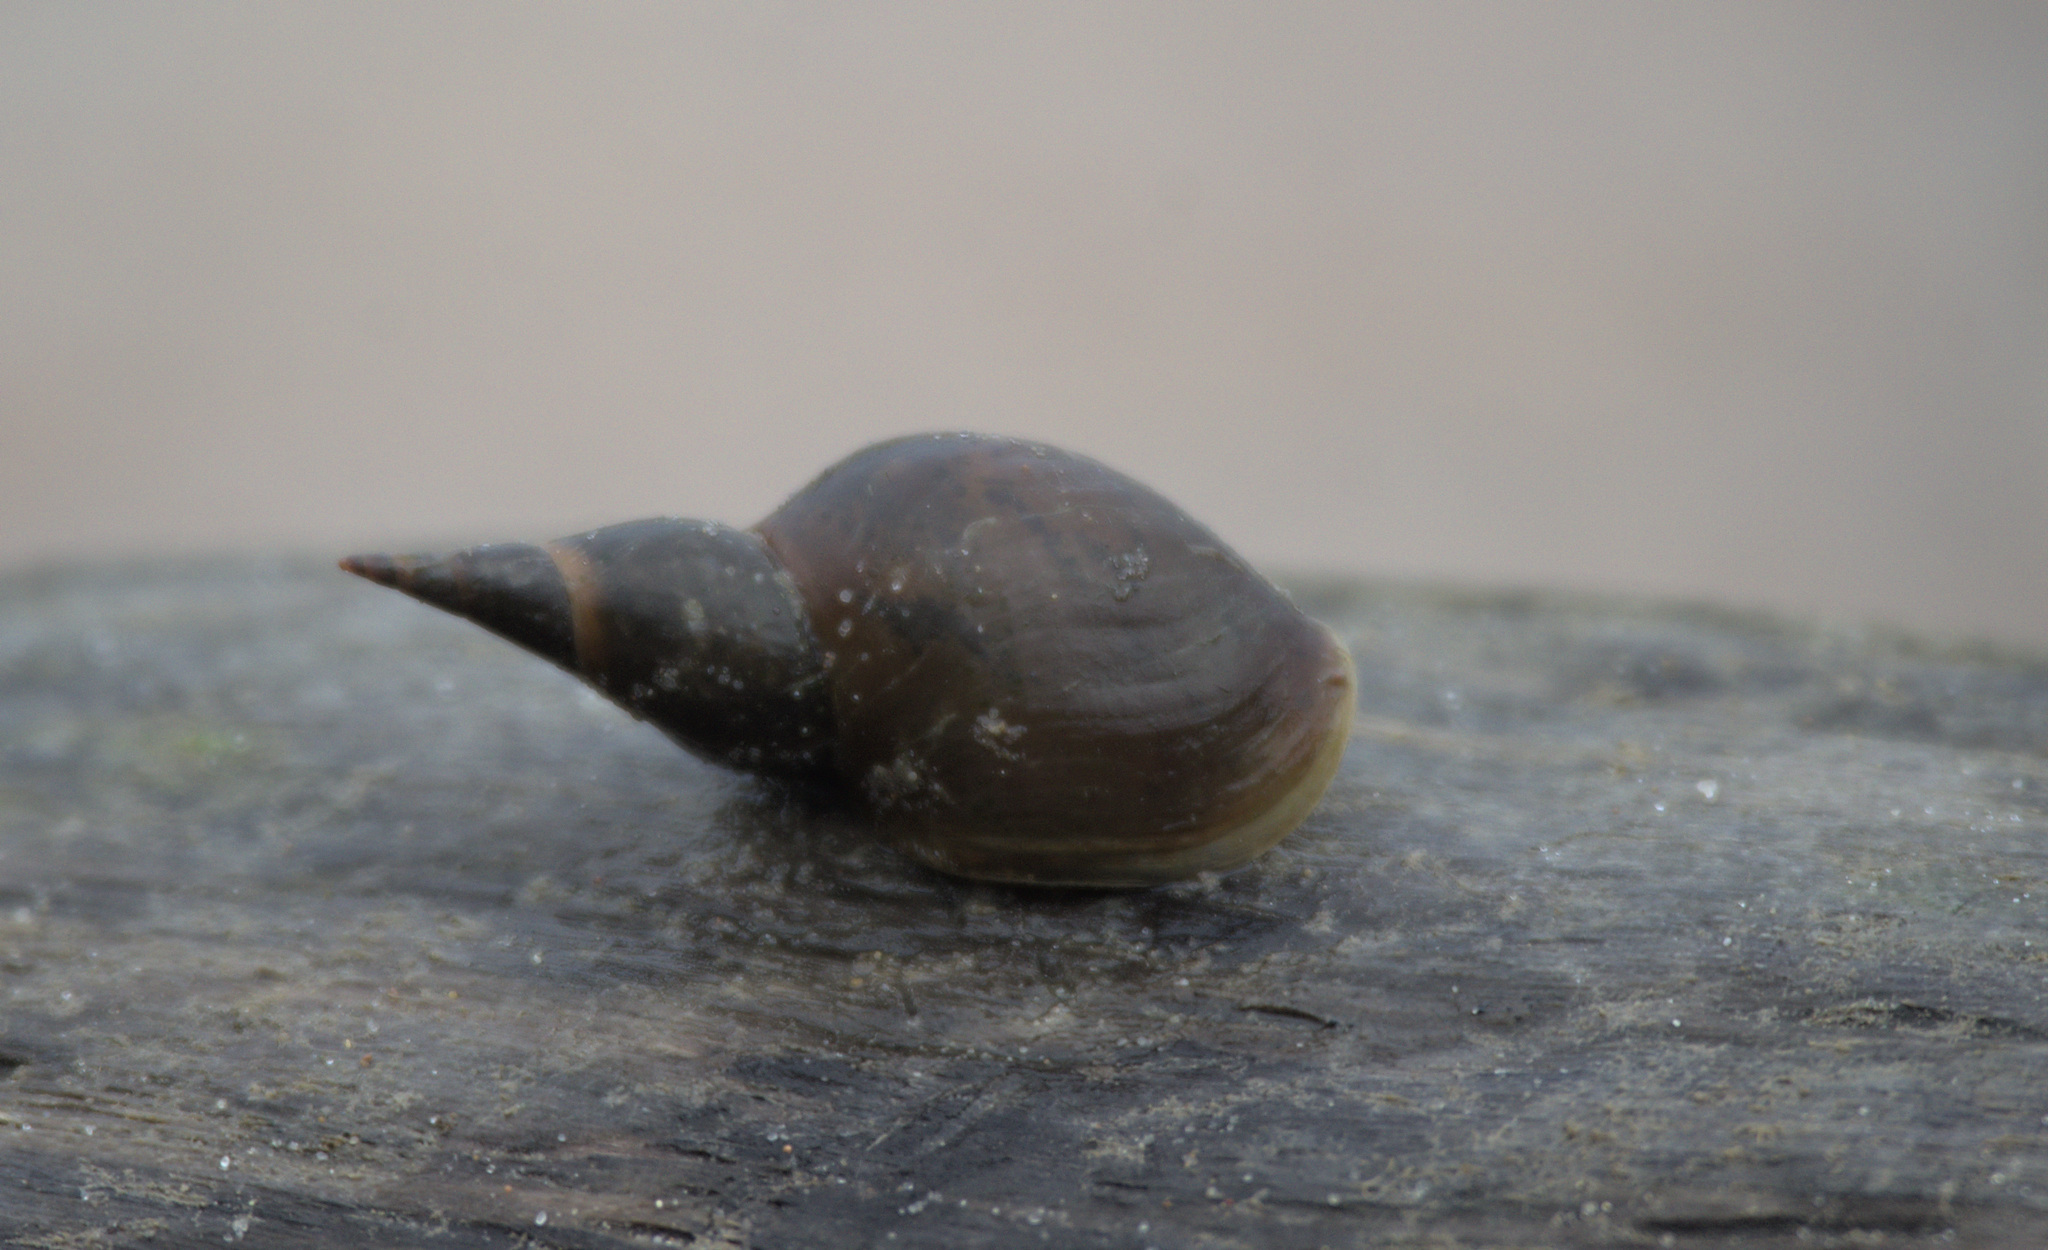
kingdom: Animalia
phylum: Mollusca
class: Gastropoda
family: Lymnaeidae
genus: Lymnaea
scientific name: Lymnaea stagnalis
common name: Great pond snail
